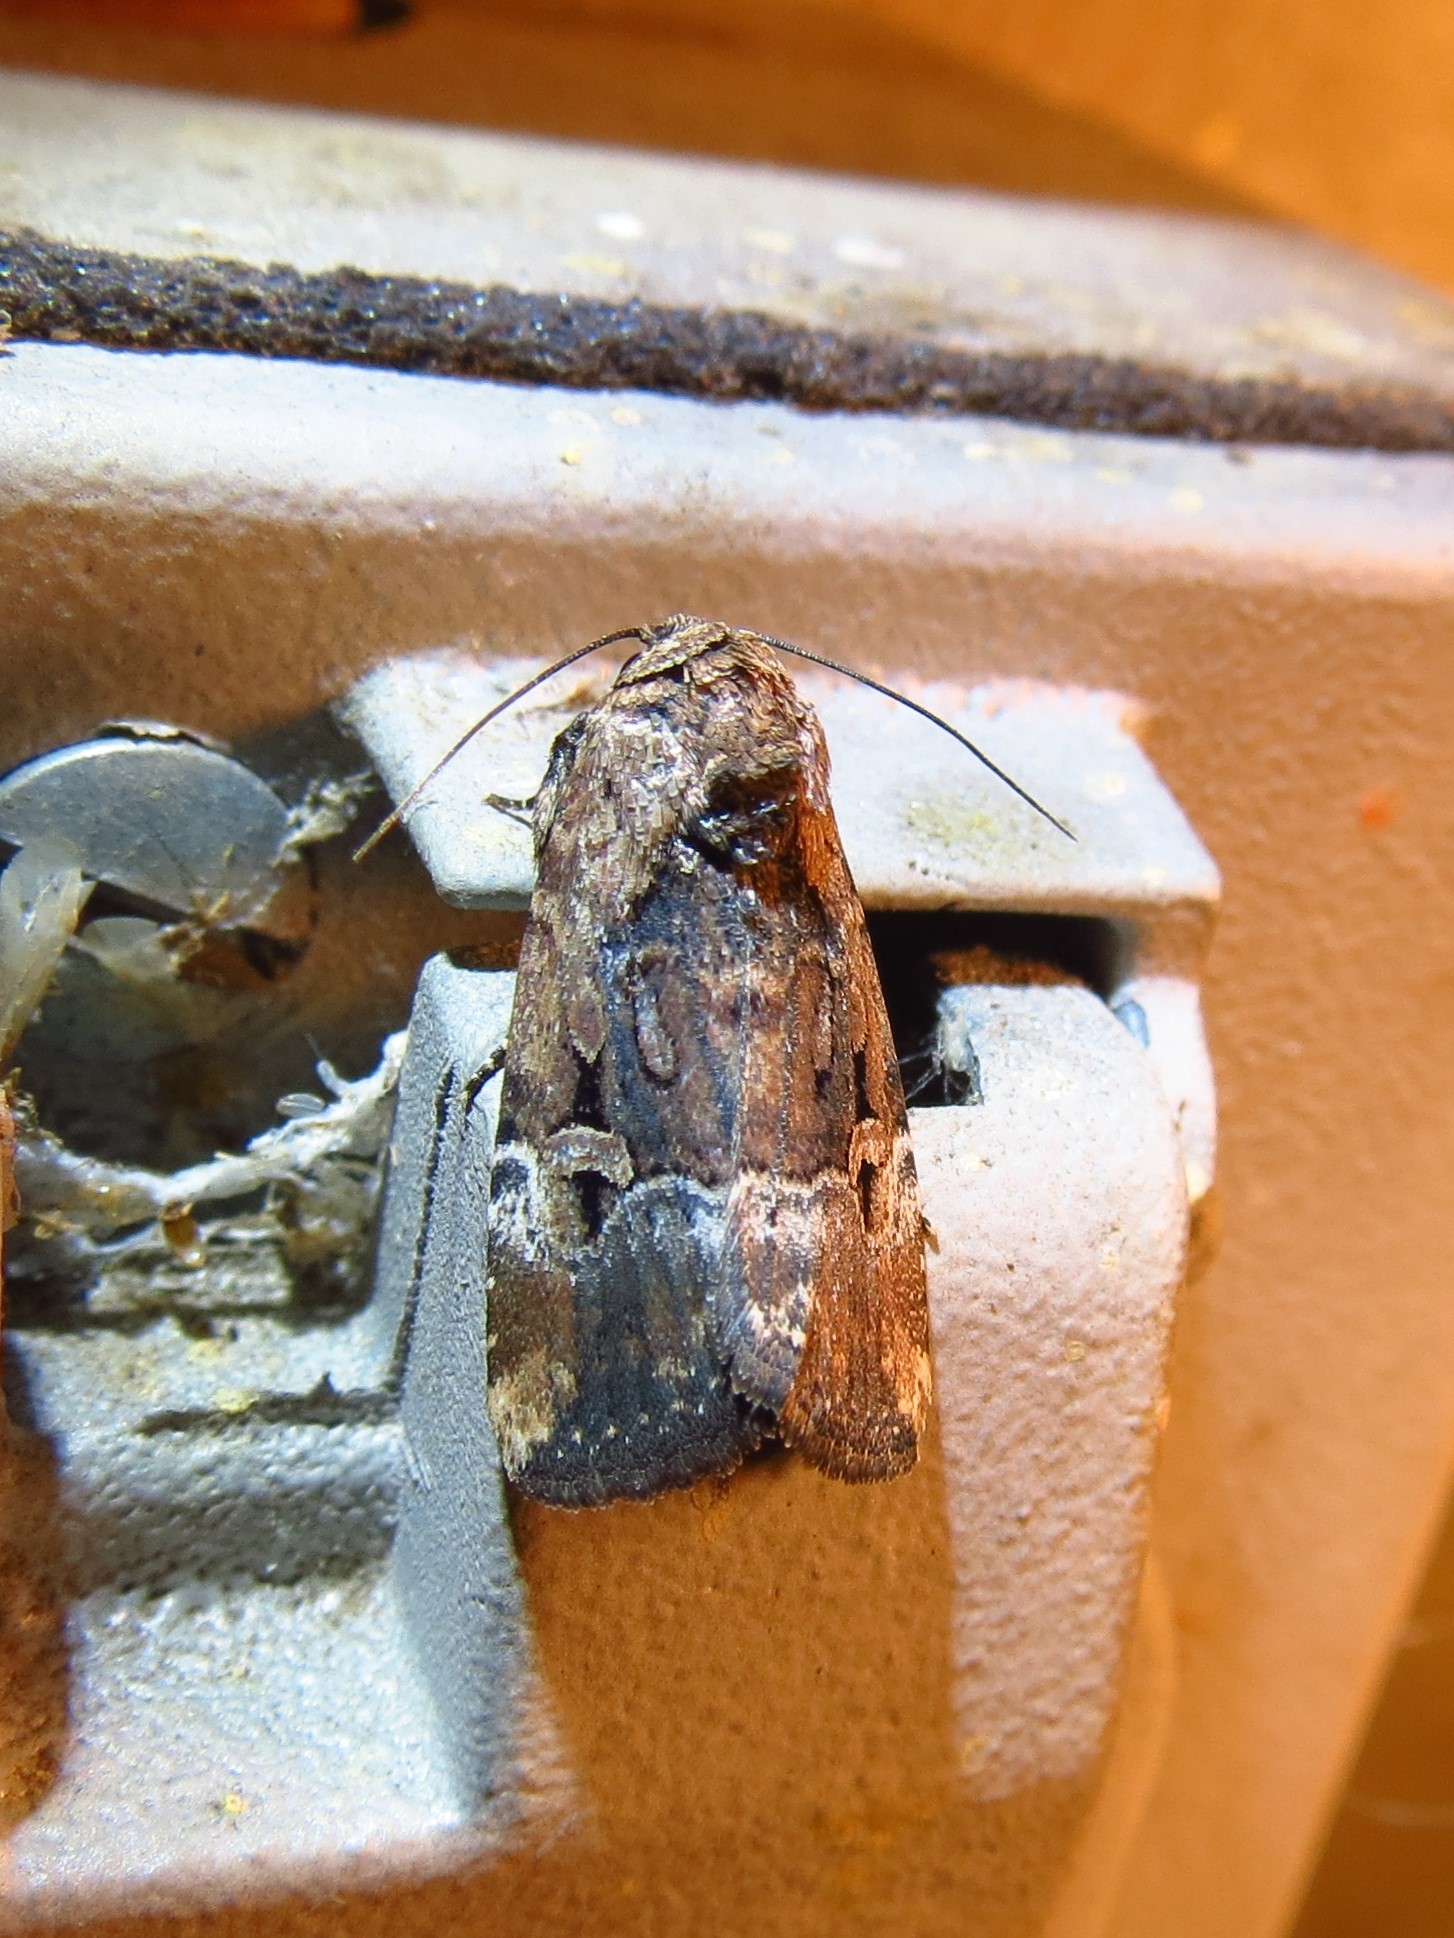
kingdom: Animalia
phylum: Arthropoda
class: Insecta
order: Lepidoptera
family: Noctuidae
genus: Elaphria
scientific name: Elaphria chalcedonia
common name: Chalcedony midget
